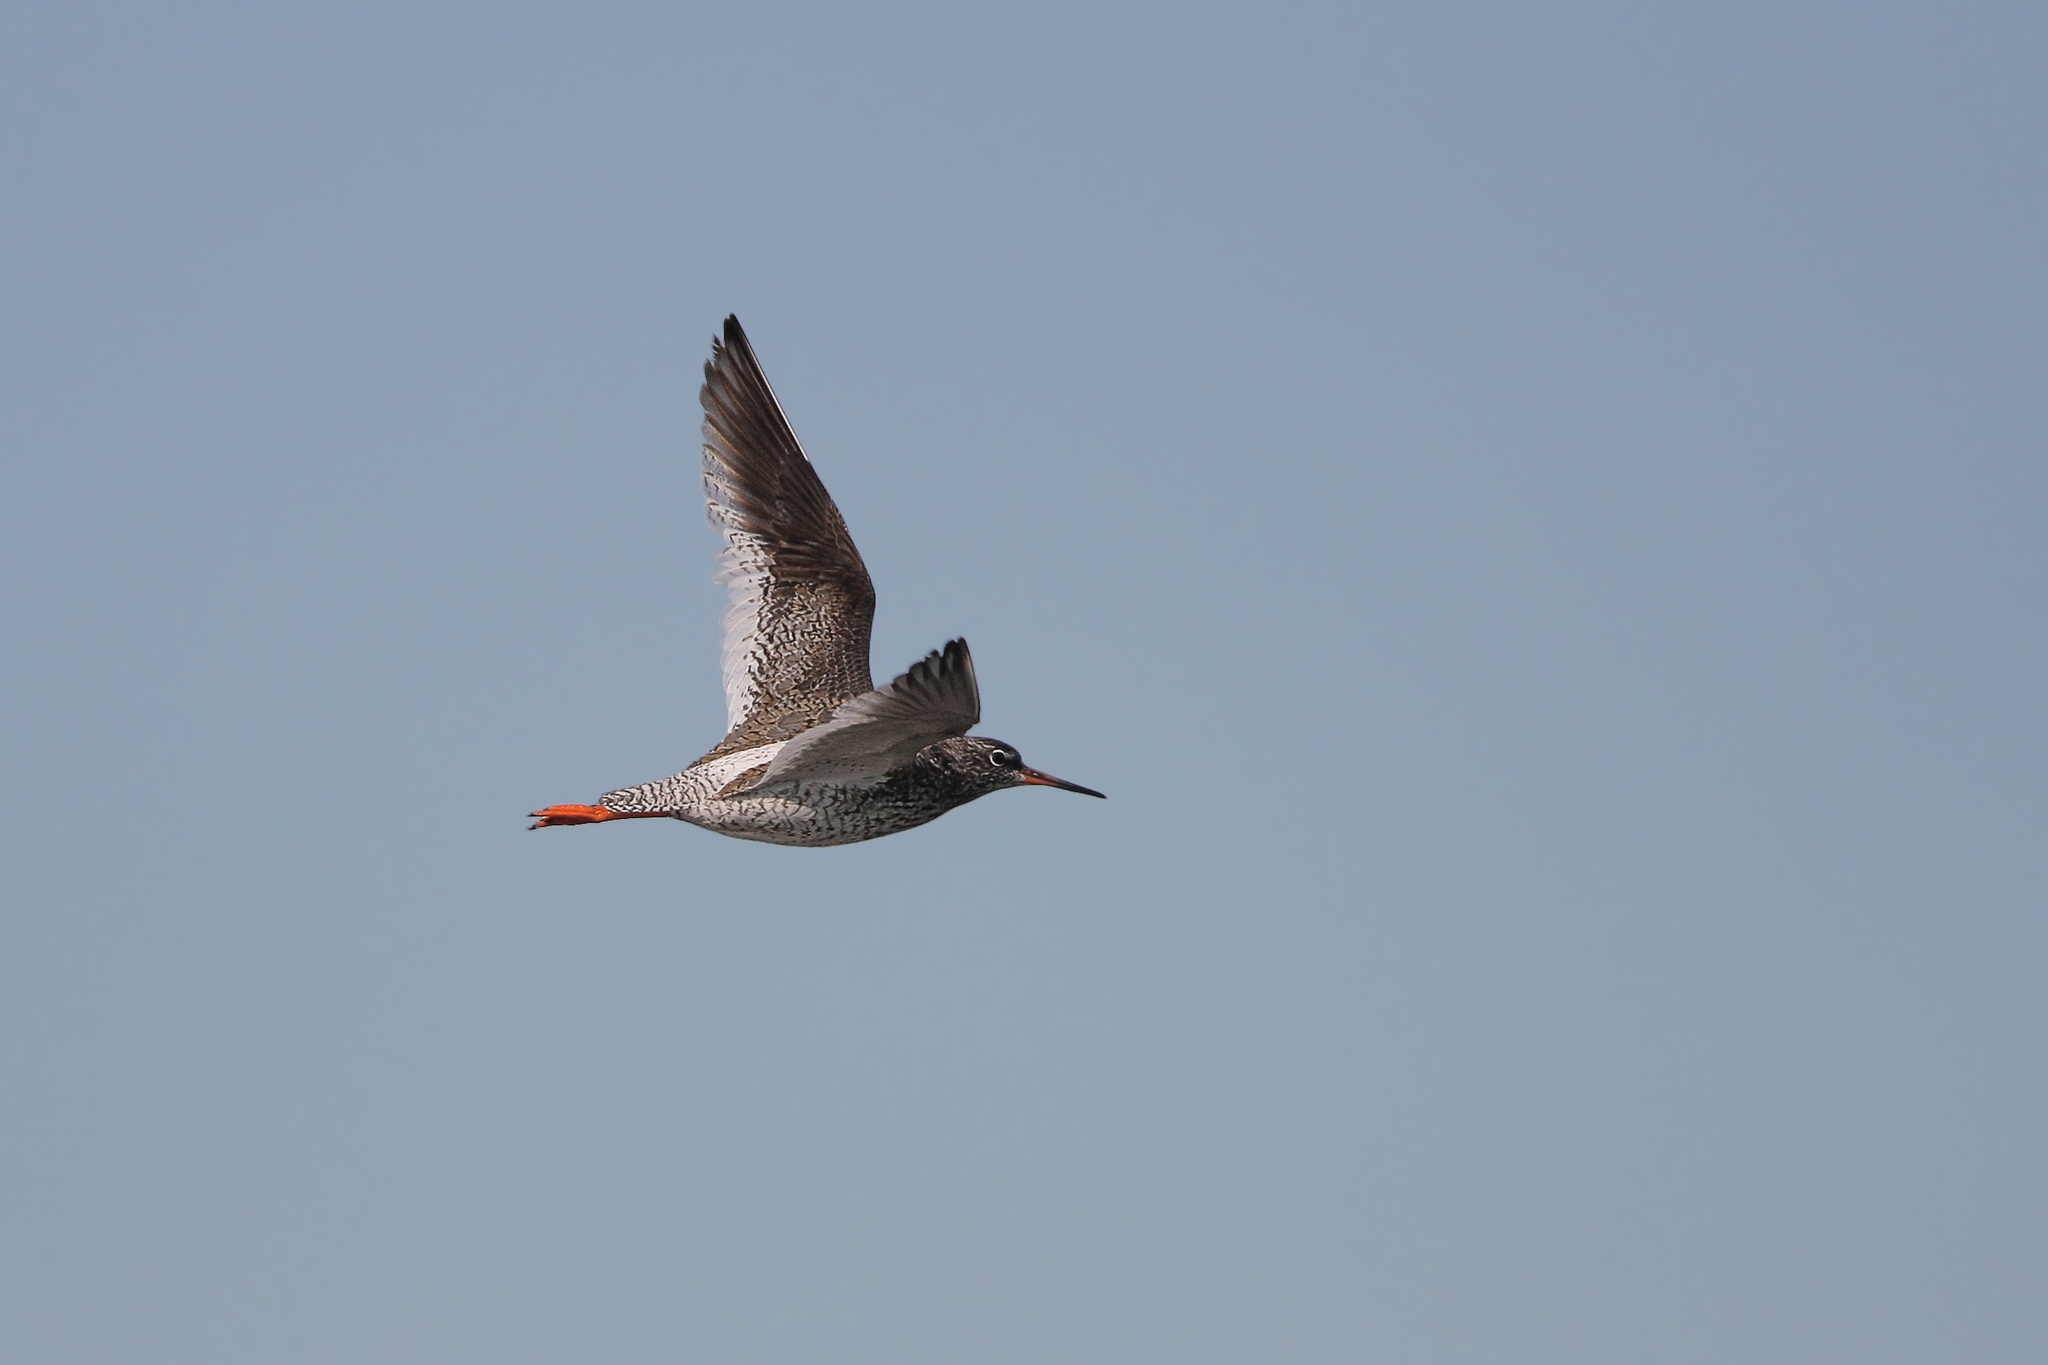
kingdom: Animalia
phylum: Chordata
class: Aves
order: Charadriiformes
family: Scolopacidae
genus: Tringa
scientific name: Tringa totanus
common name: Common redshank
